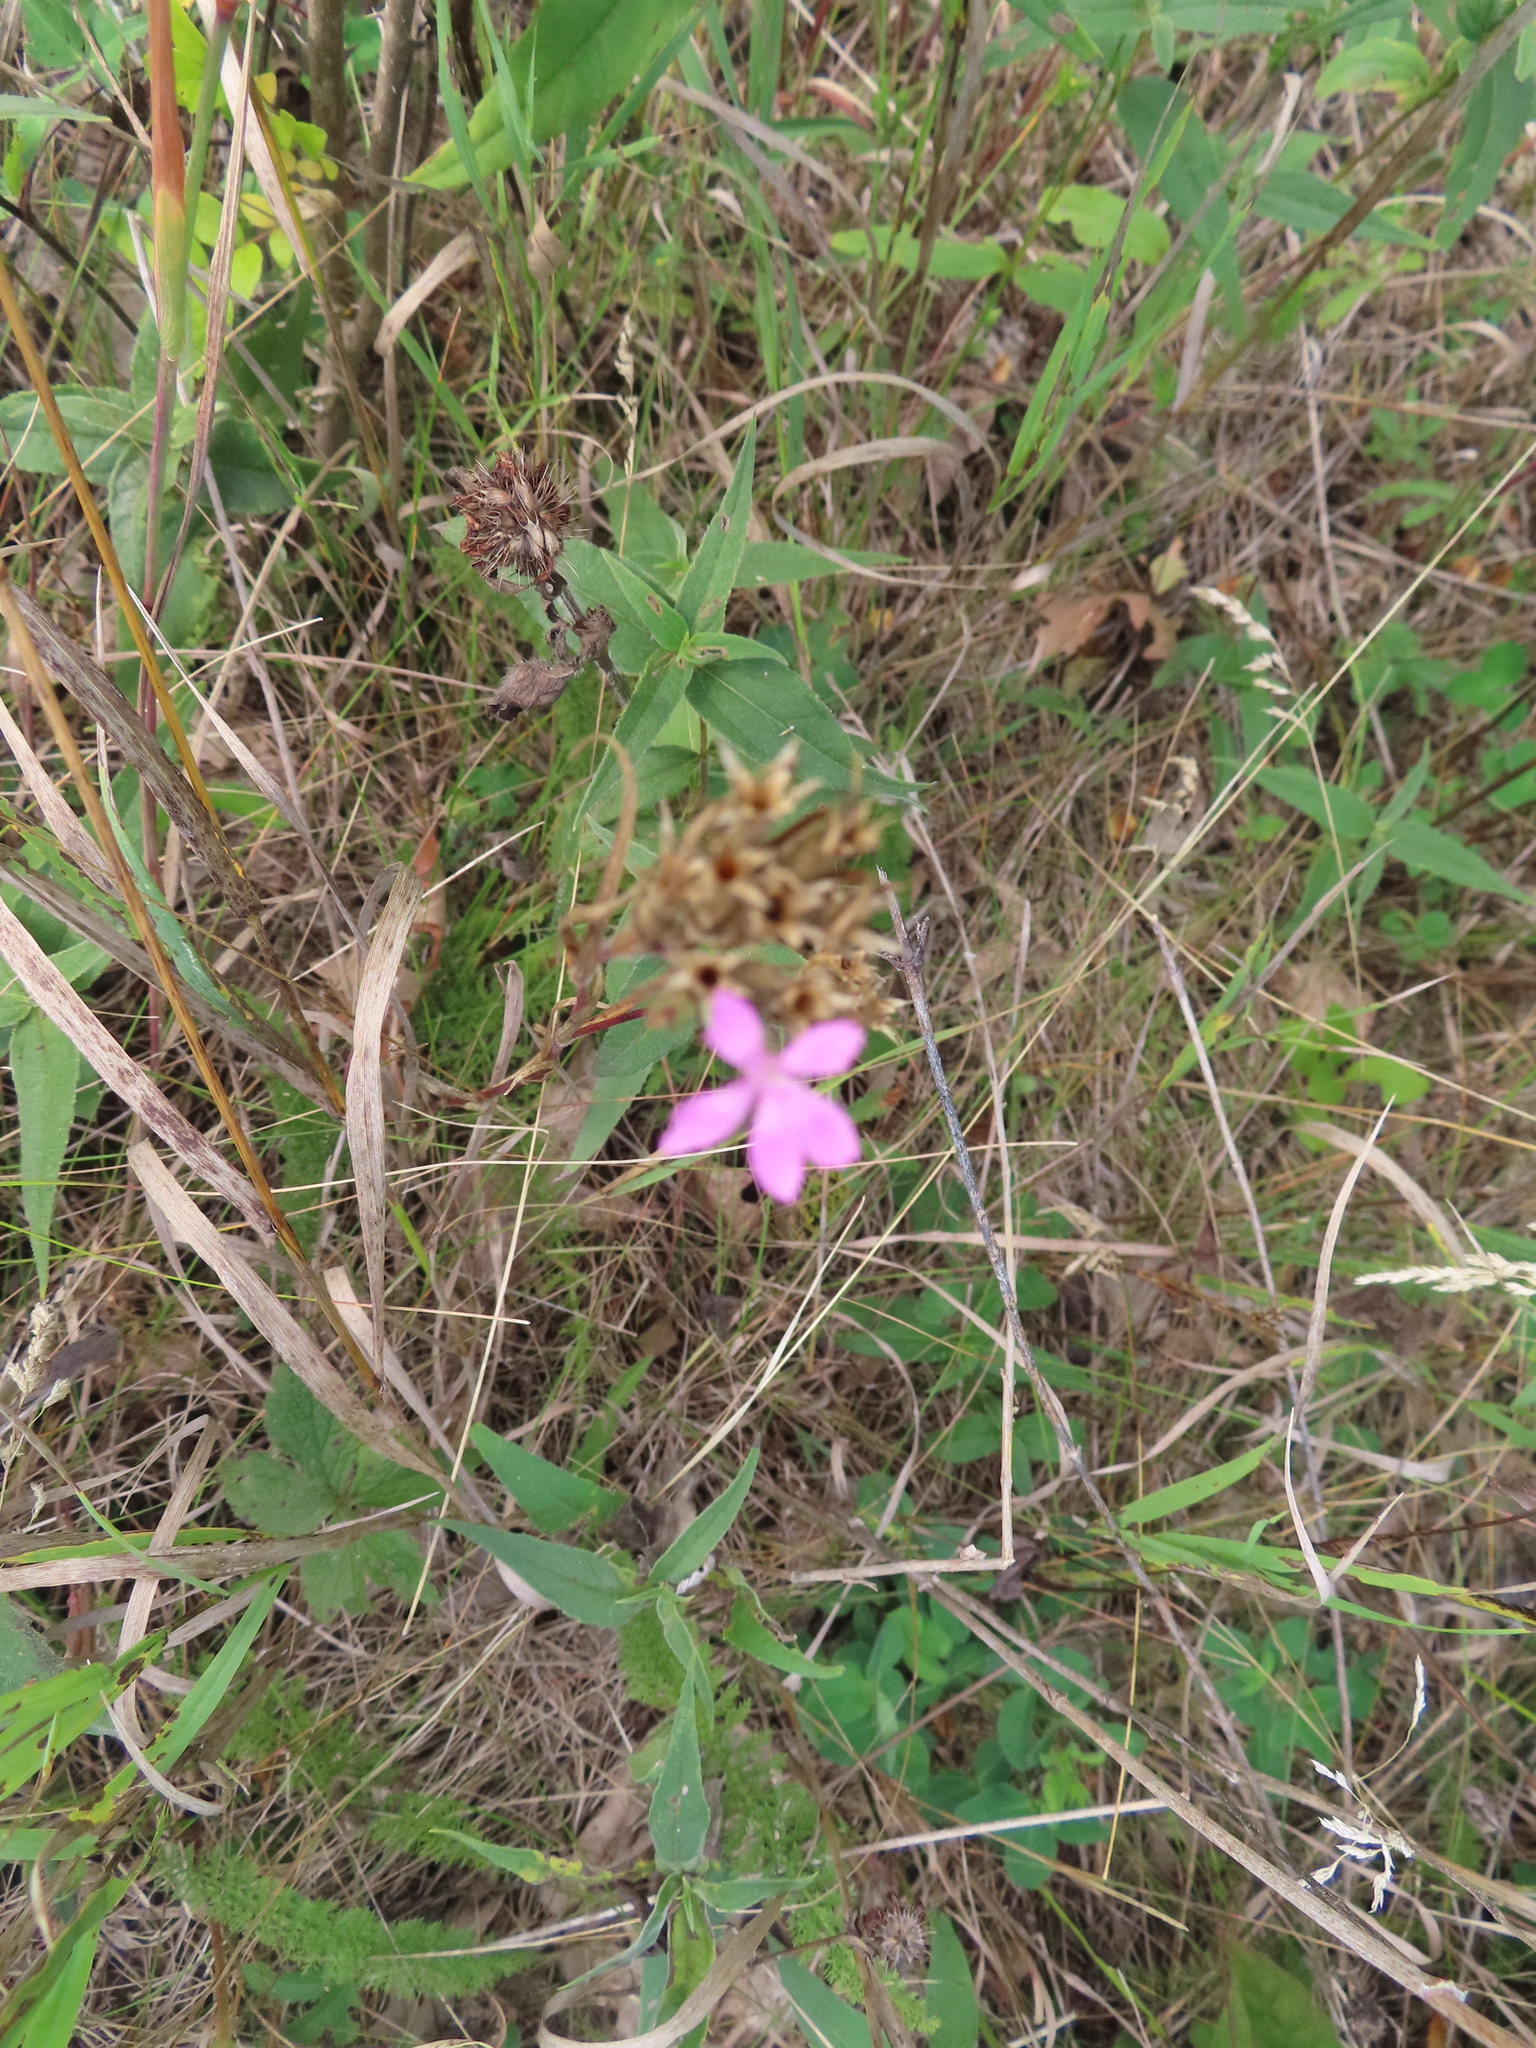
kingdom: Plantae
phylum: Tracheophyta
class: Magnoliopsida
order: Caryophyllales
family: Caryophyllaceae
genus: Dianthus
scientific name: Dianthus armeria
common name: Deptford pink
